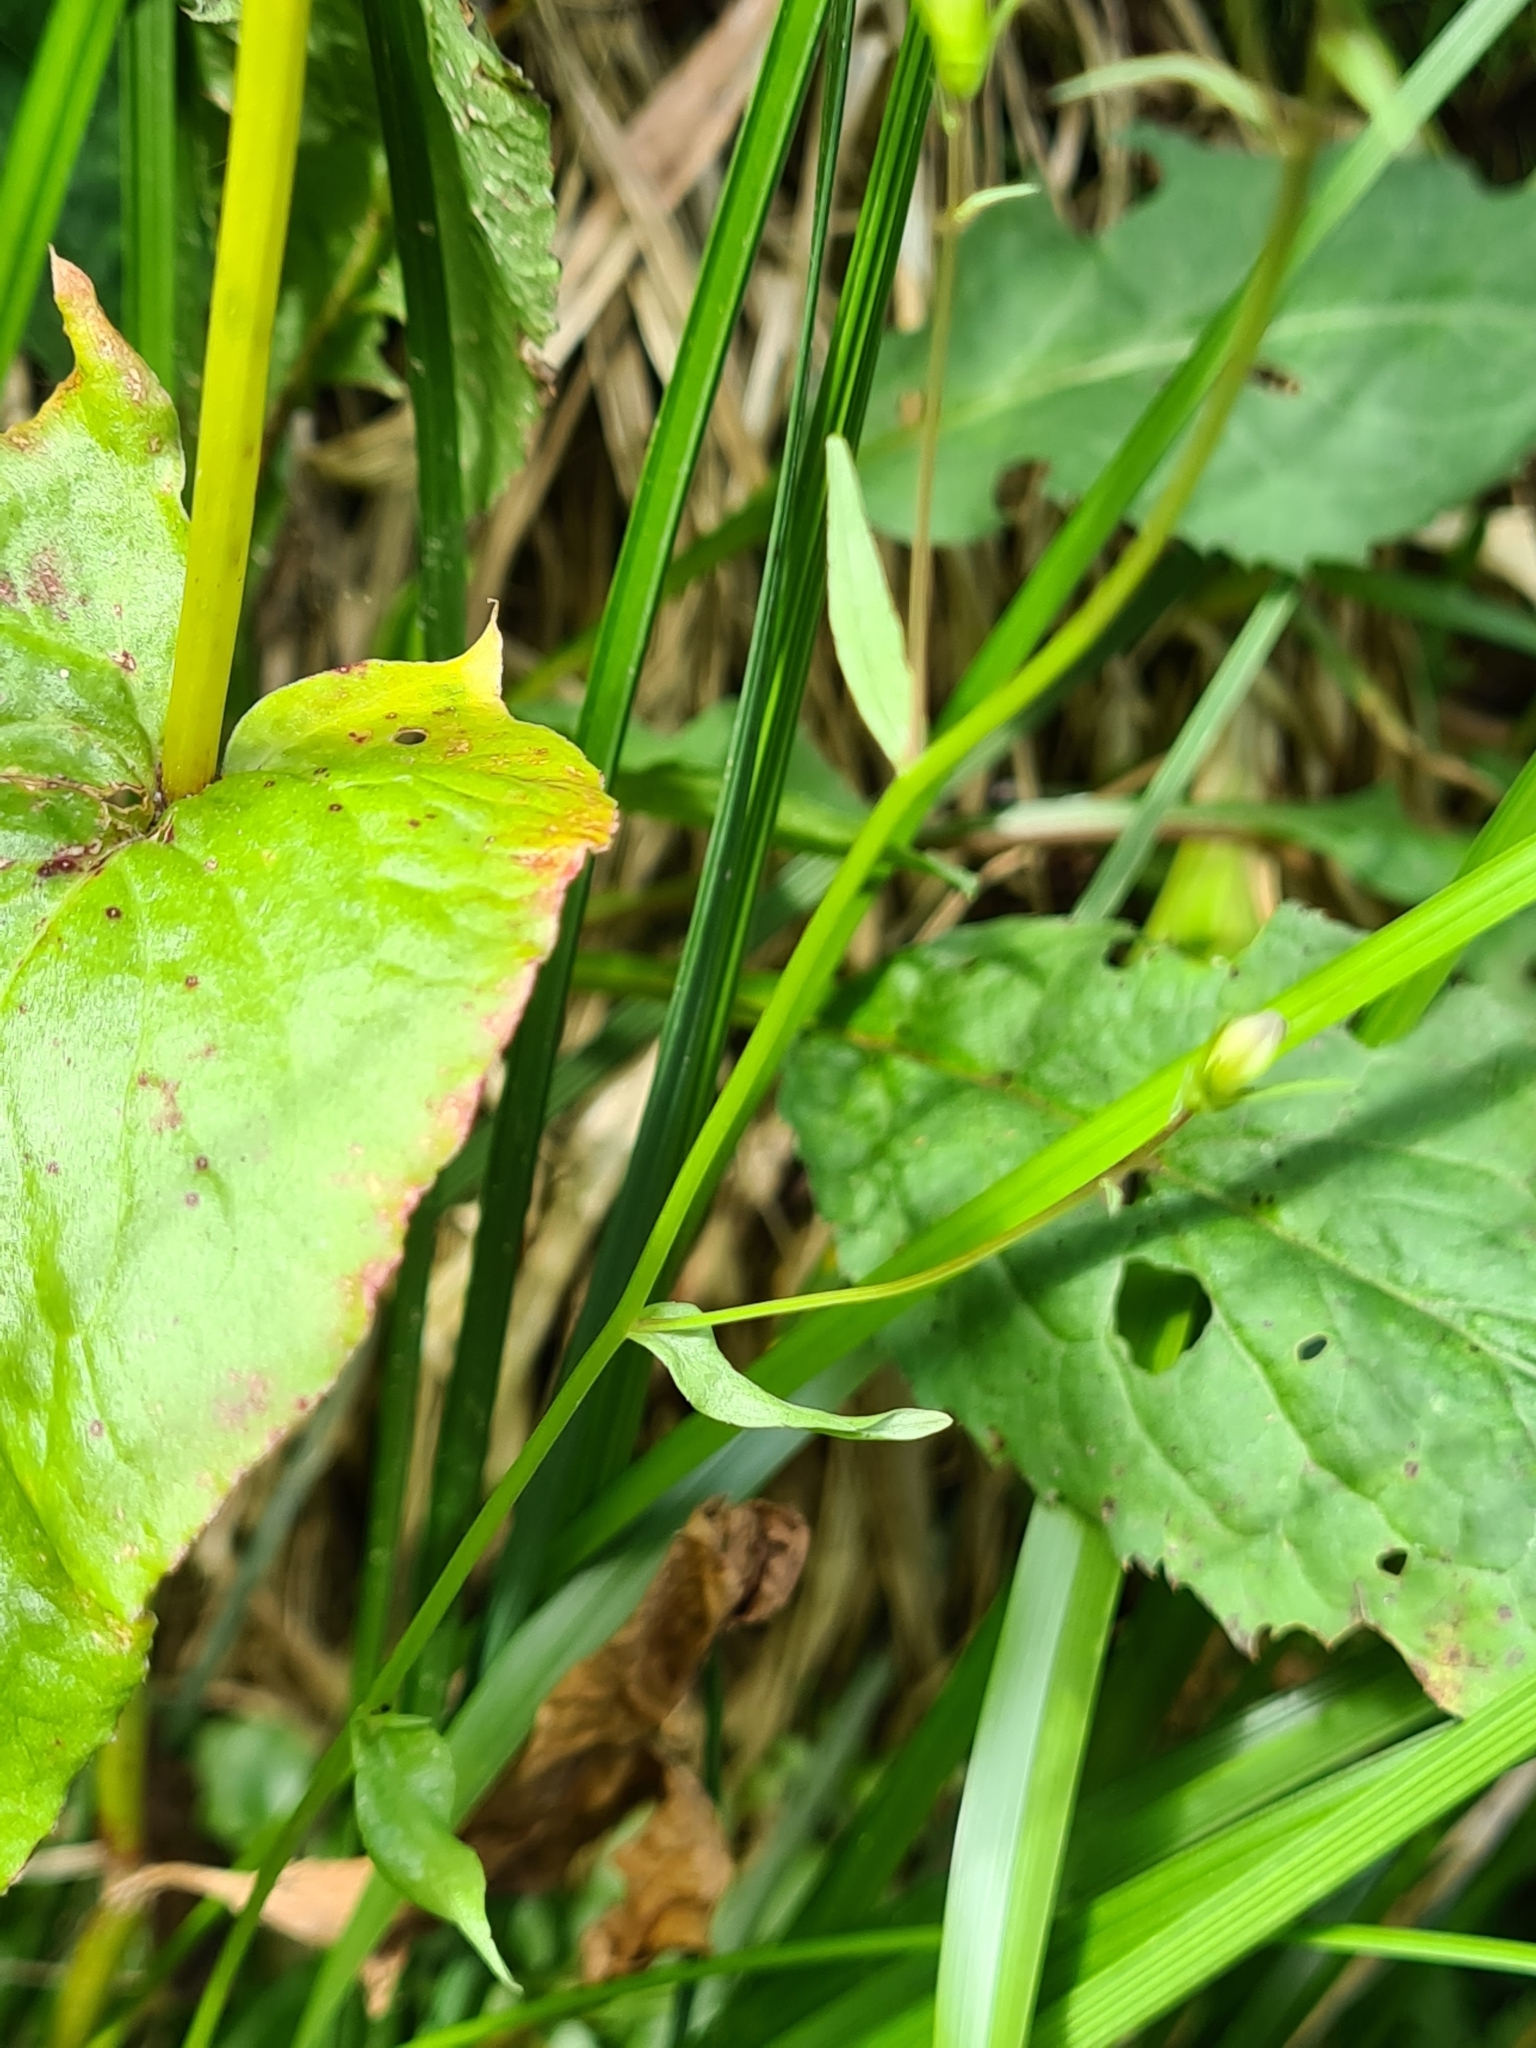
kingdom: Plantae
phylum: Tracheophyta
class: Magnoliopsida
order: Asterales
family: Campanulaceae
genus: Campanula
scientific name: Campanula patula
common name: Spreading bellflower
